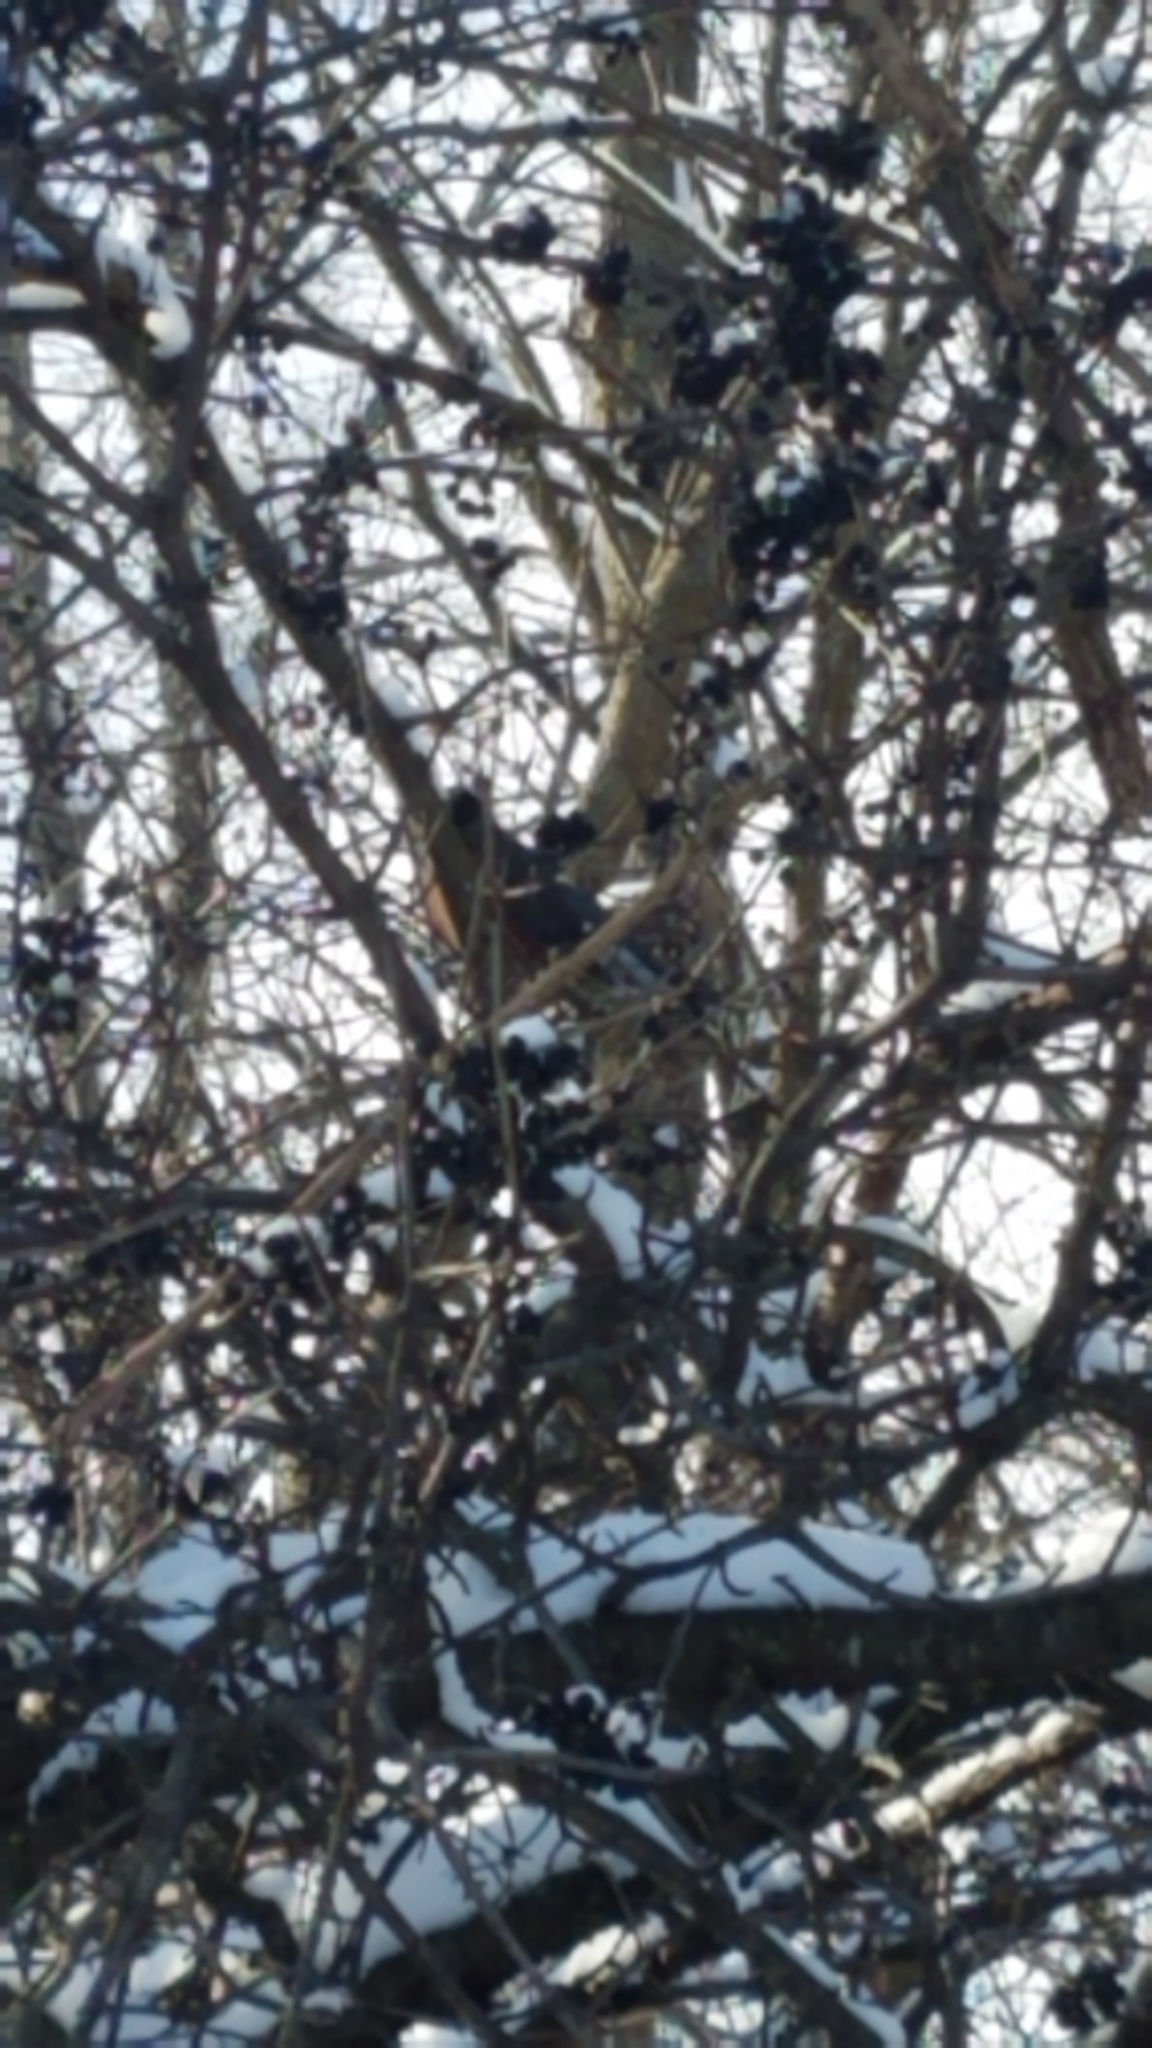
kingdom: Animalia
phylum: Chordata
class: Aves
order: Passeriformes
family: Turdidae
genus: Turdus
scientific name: Turdus migratorius
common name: American robin
